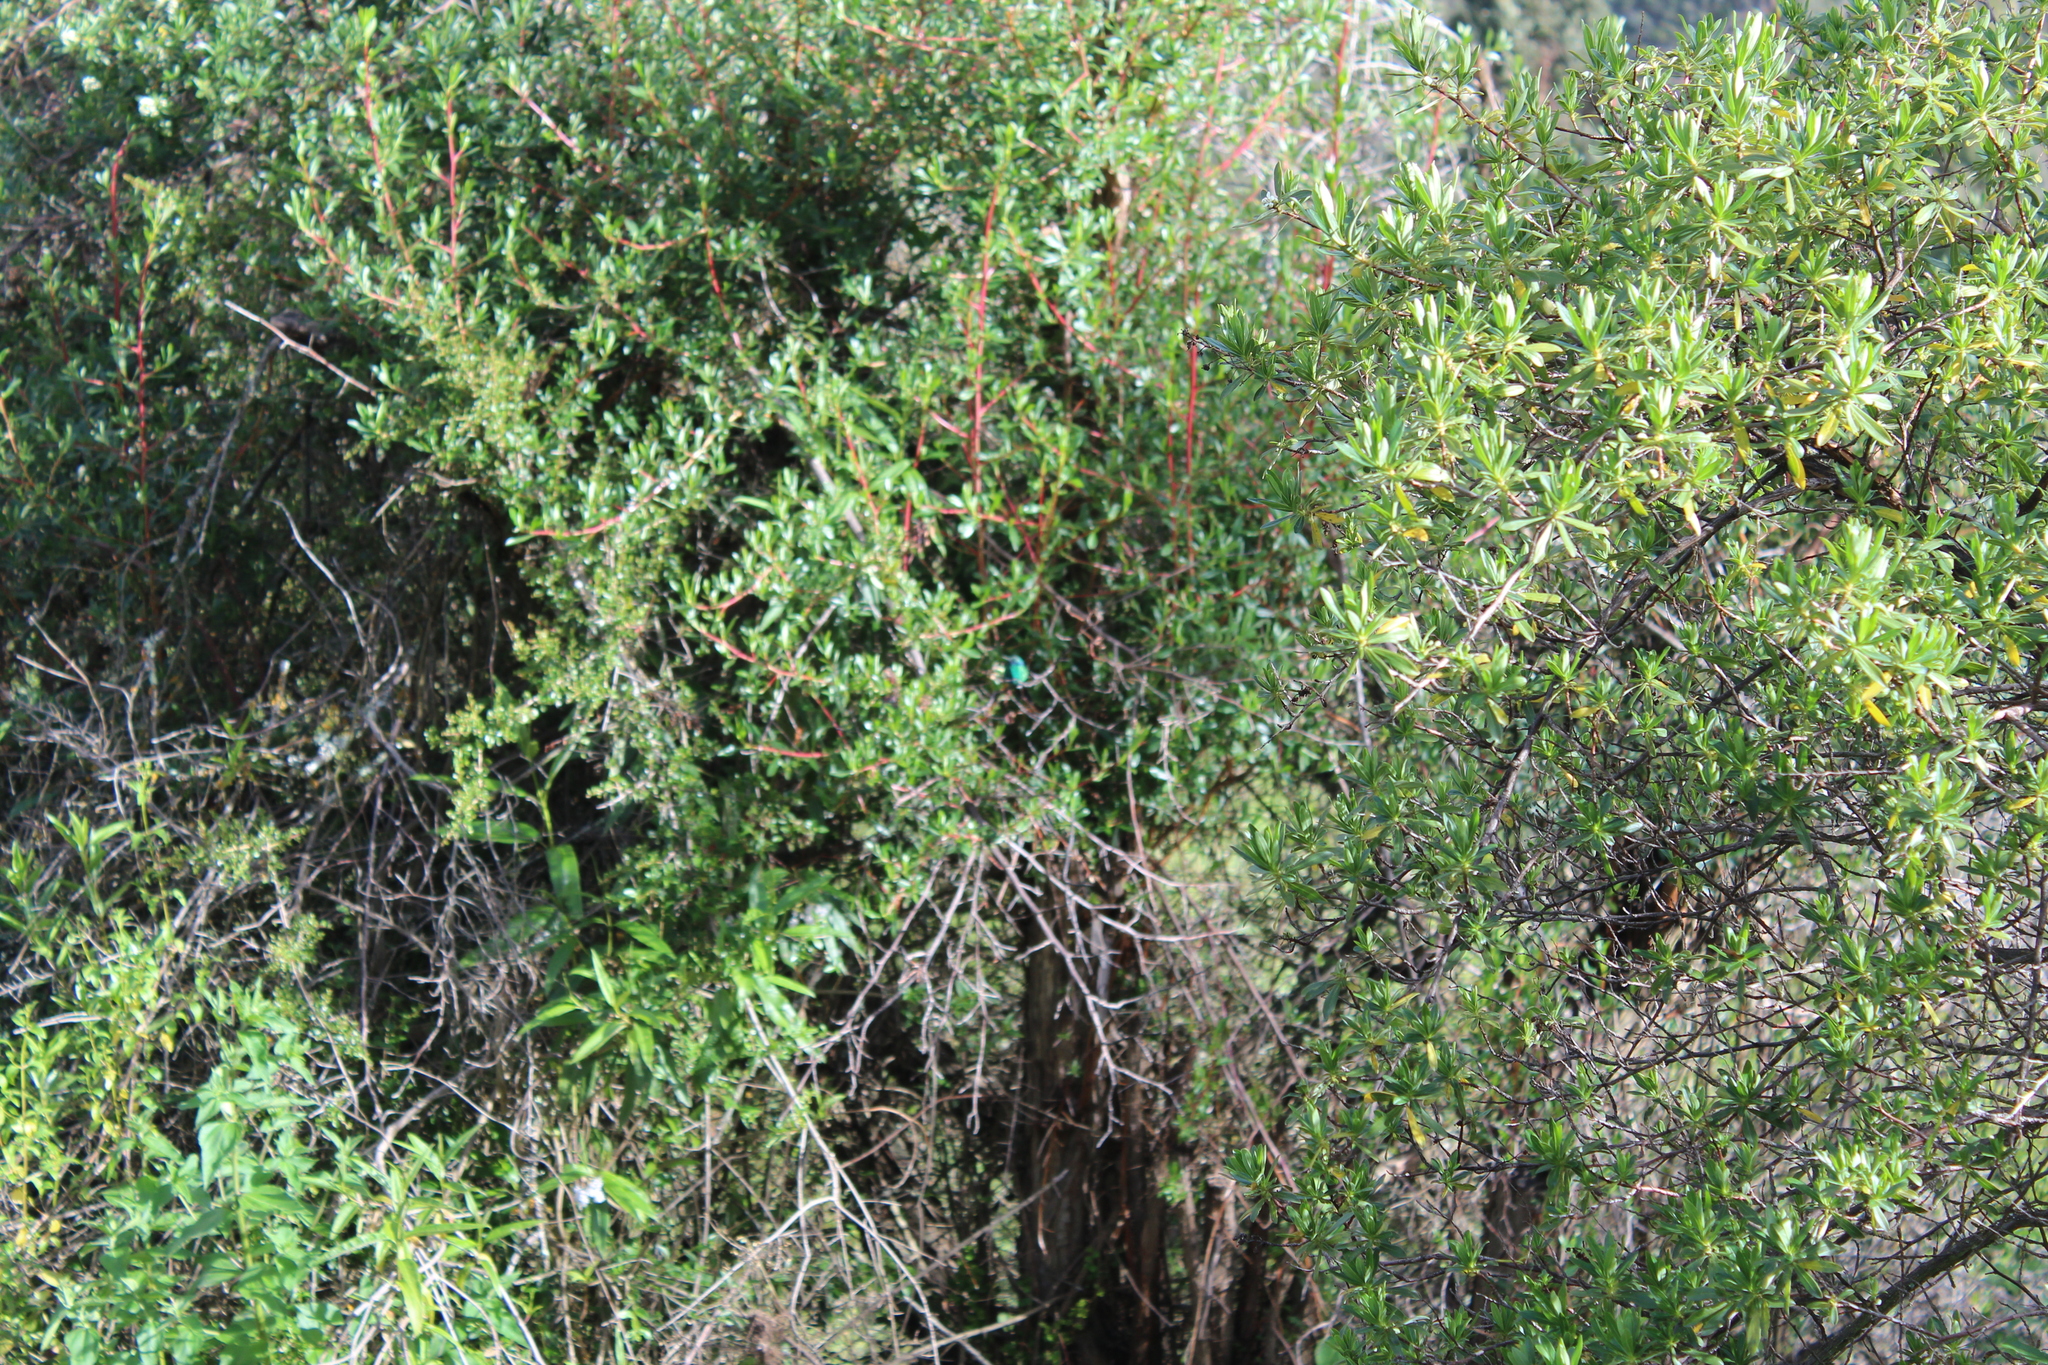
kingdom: Animalia
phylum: Chordata
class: Aves
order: Apodiformes
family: Trochilidae
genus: Colibri
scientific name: Colibri coruscans
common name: Sparkling violetear
